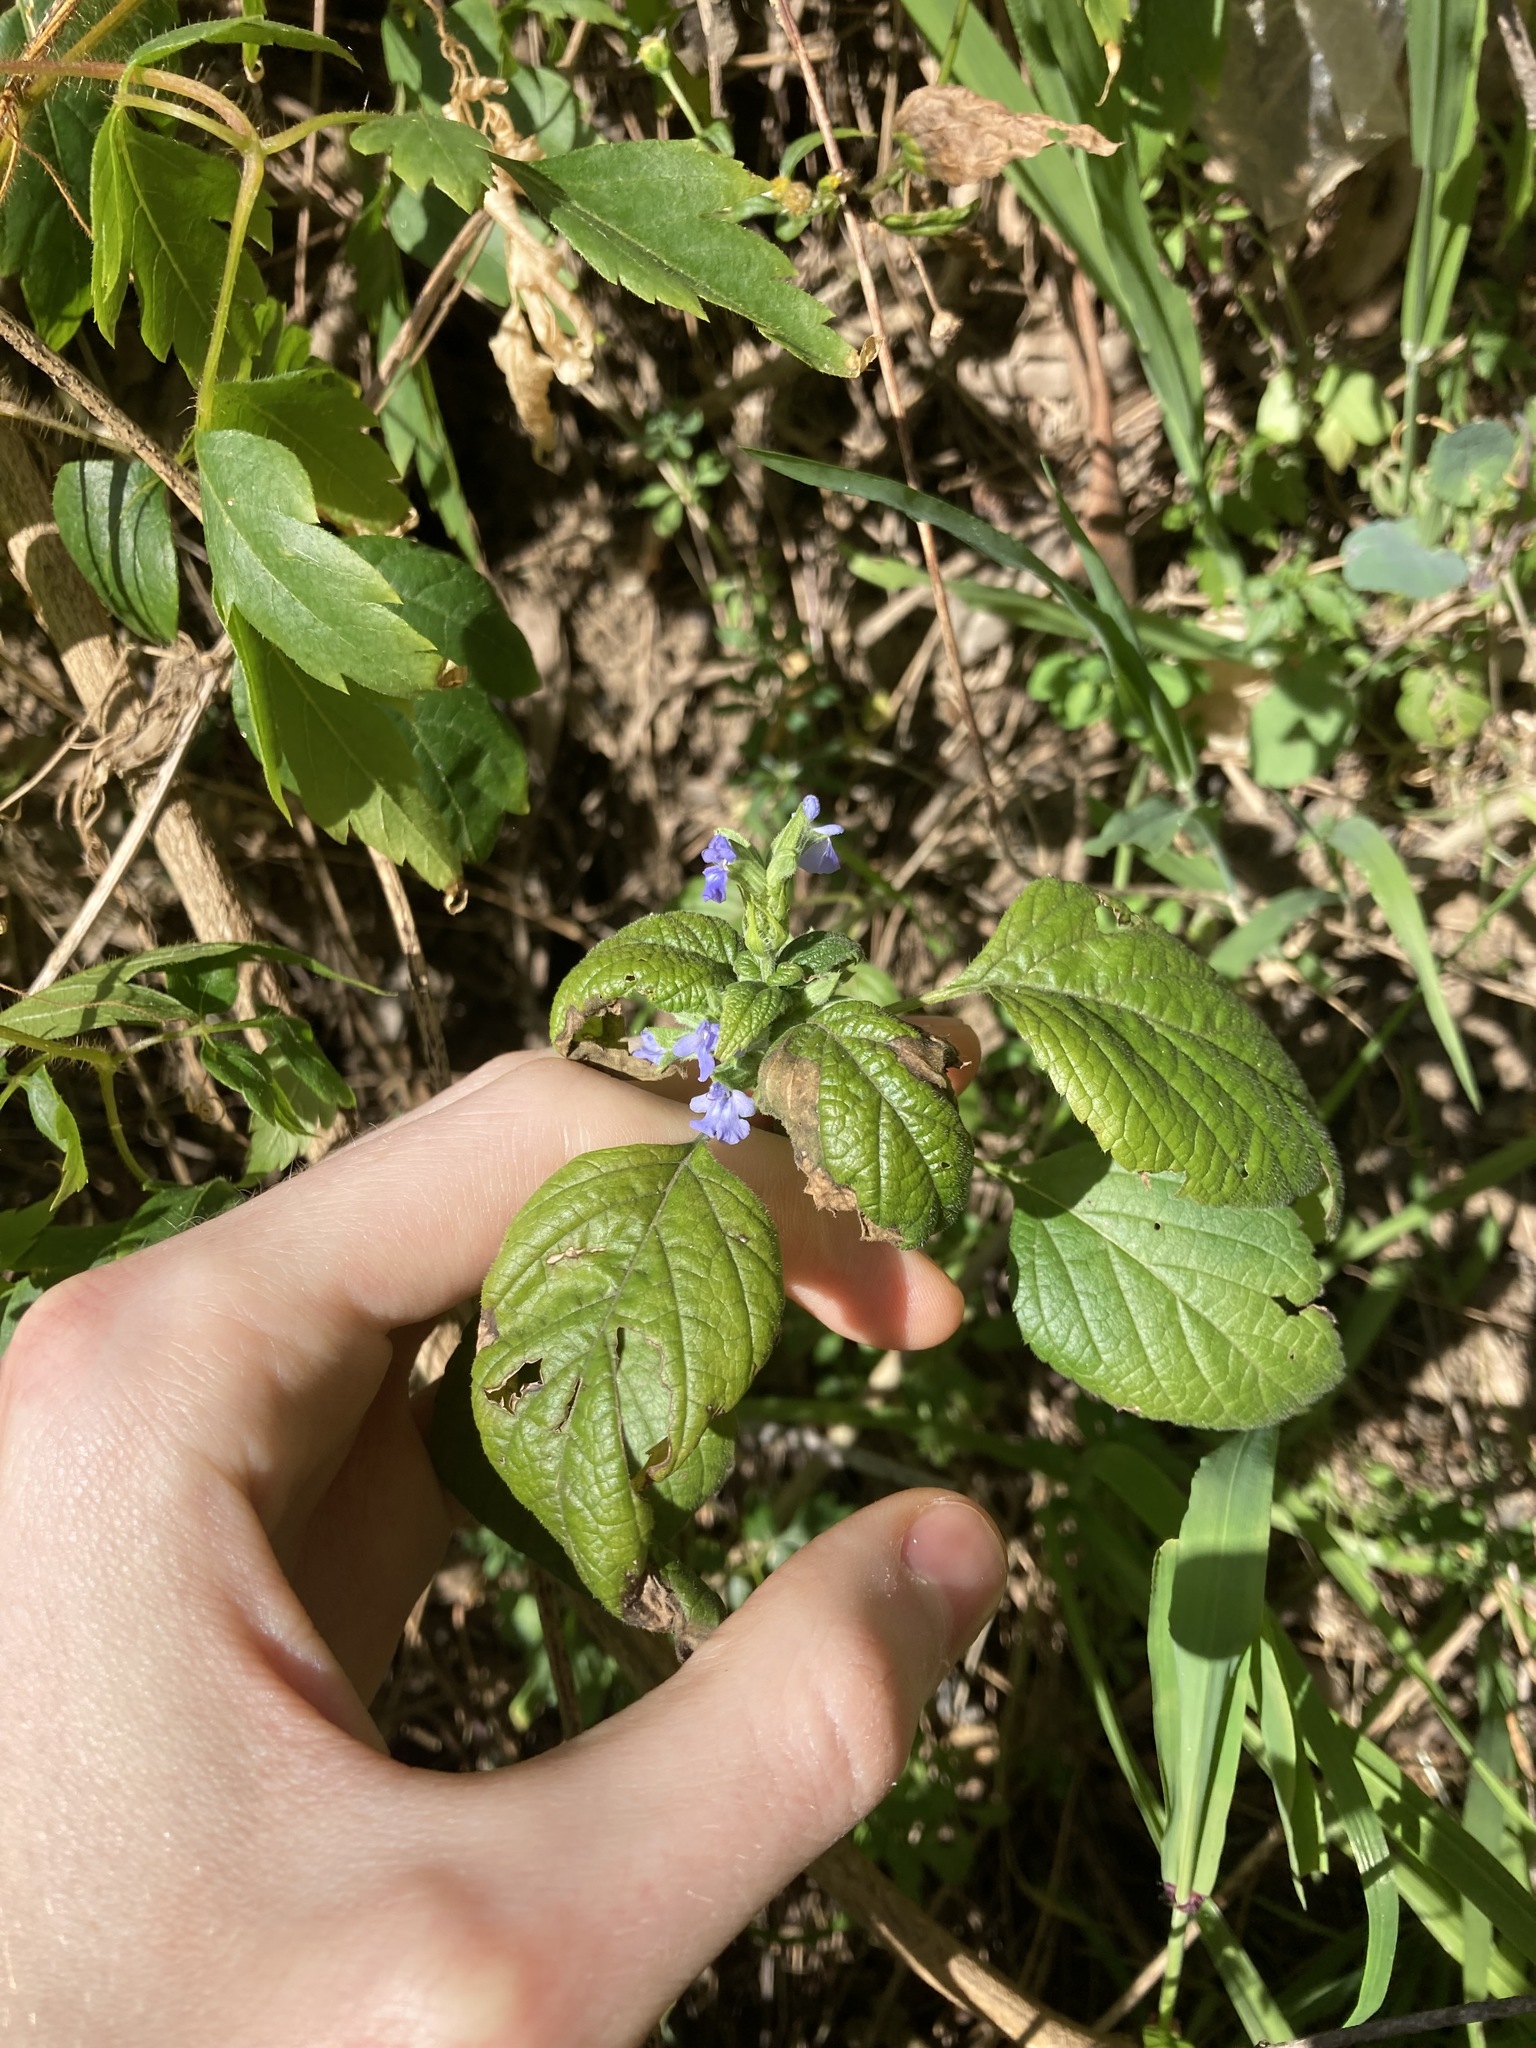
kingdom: Plantae
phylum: Tracheophyta
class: Magnoliopsida
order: Lamiales
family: Lamiaceae
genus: Salvia
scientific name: Salvia hispanica
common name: Chia
